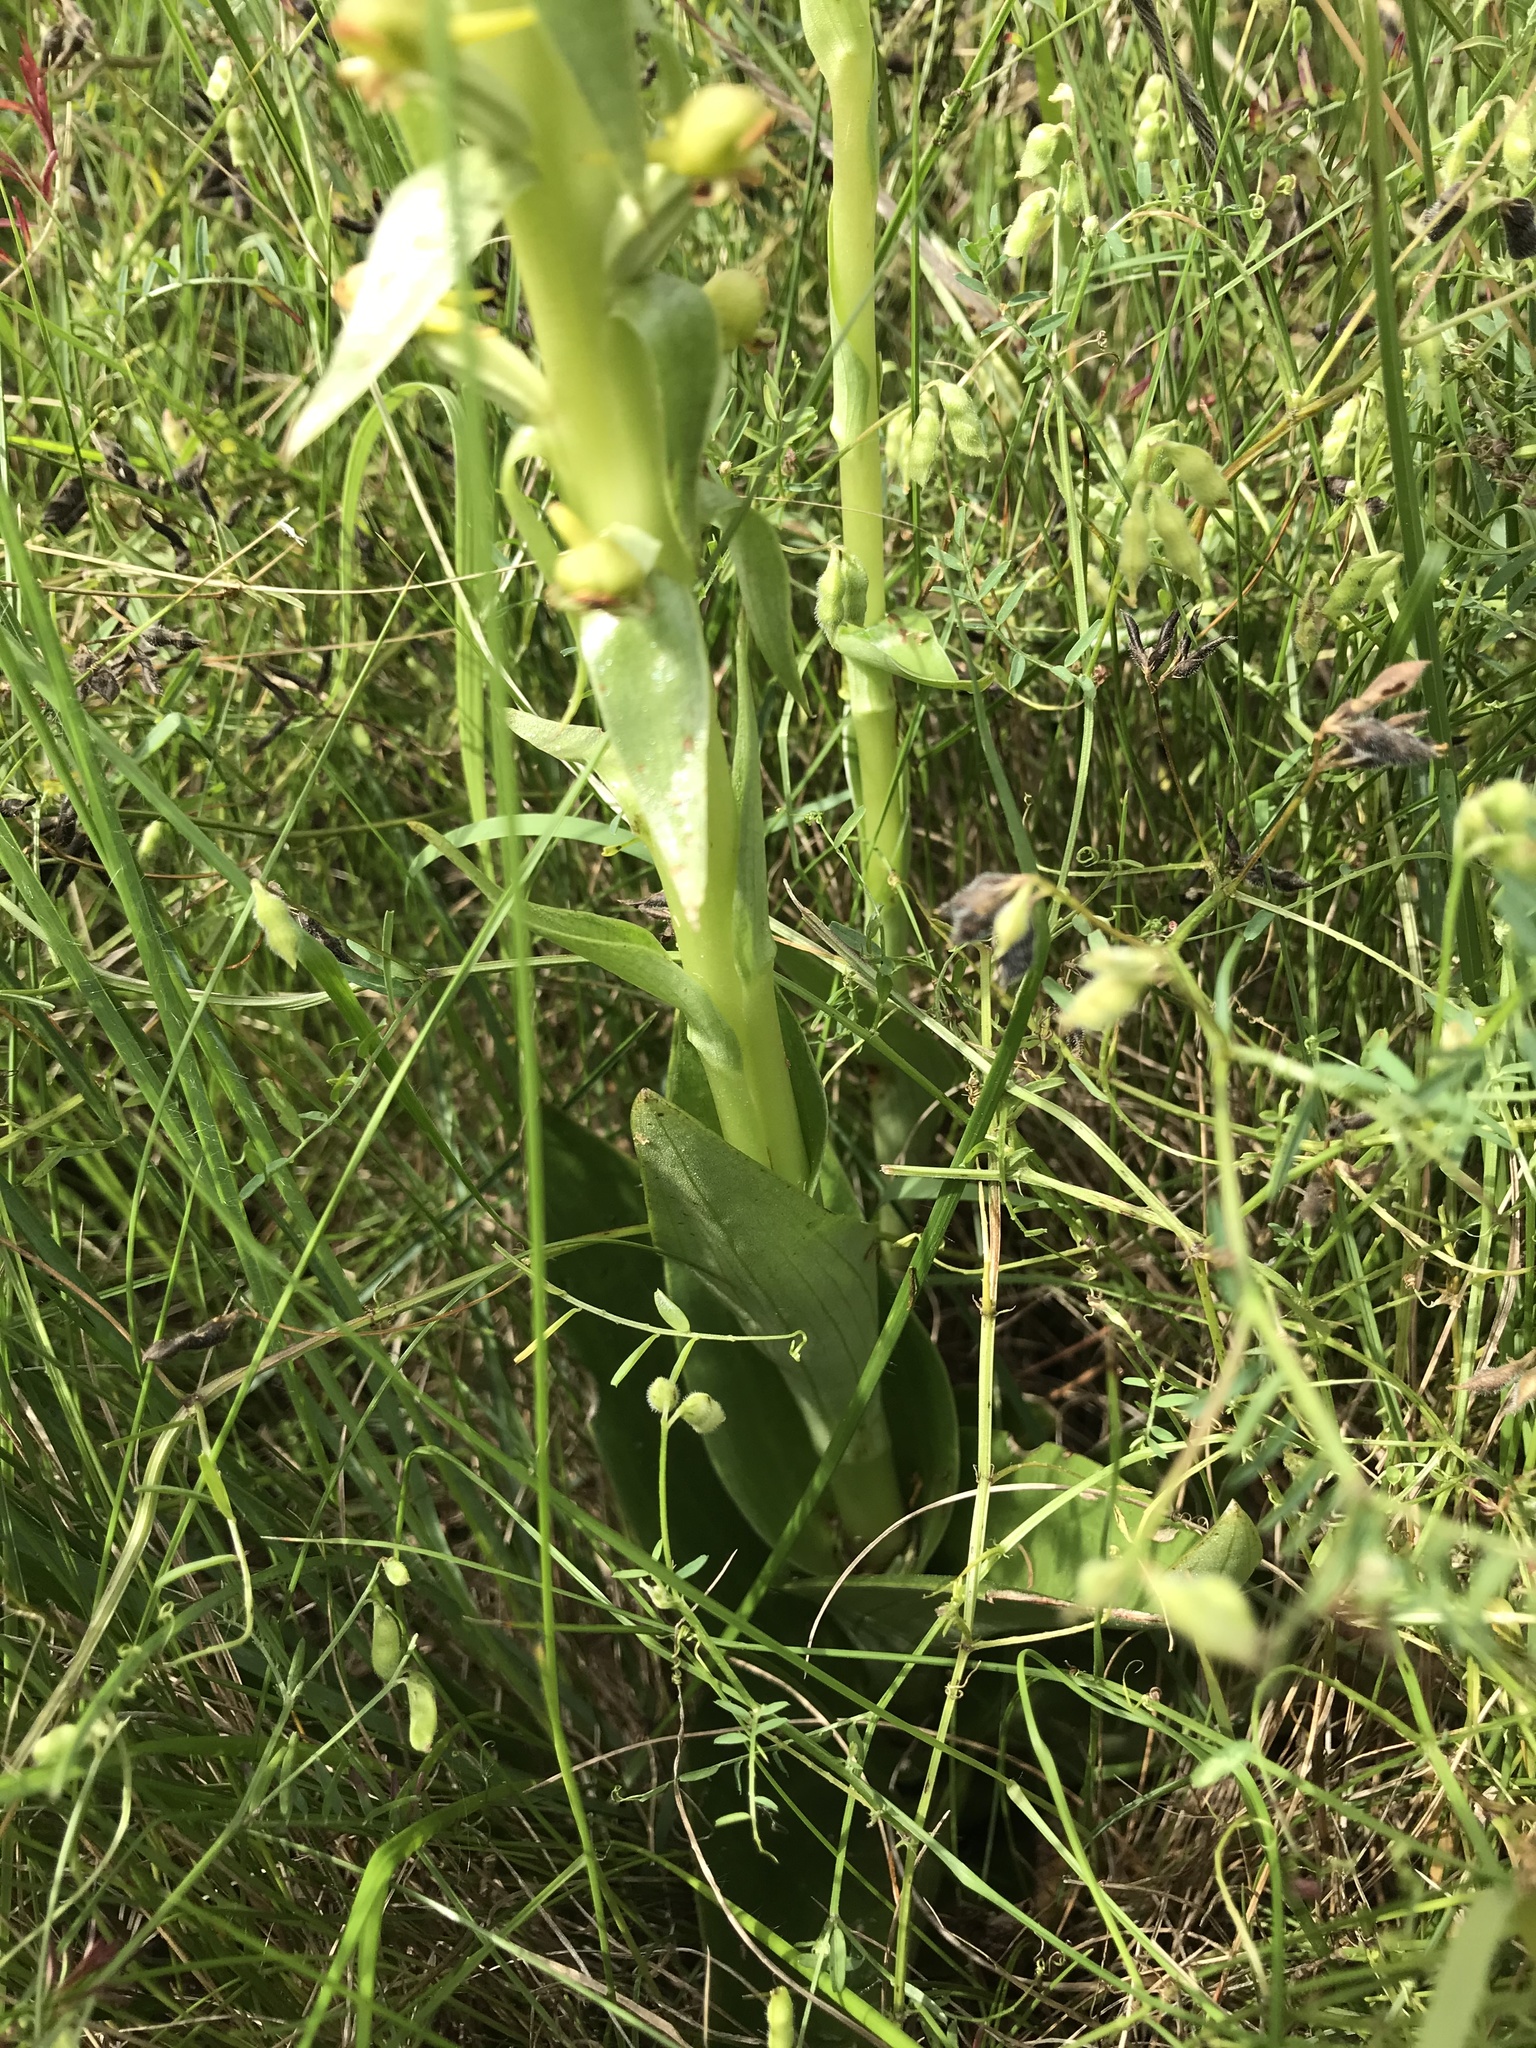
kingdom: Plantae
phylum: Tracheophyta
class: Liliopsida
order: Asparagales
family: Orchidaceae
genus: Satyrium
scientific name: Satyrium parviflorum
